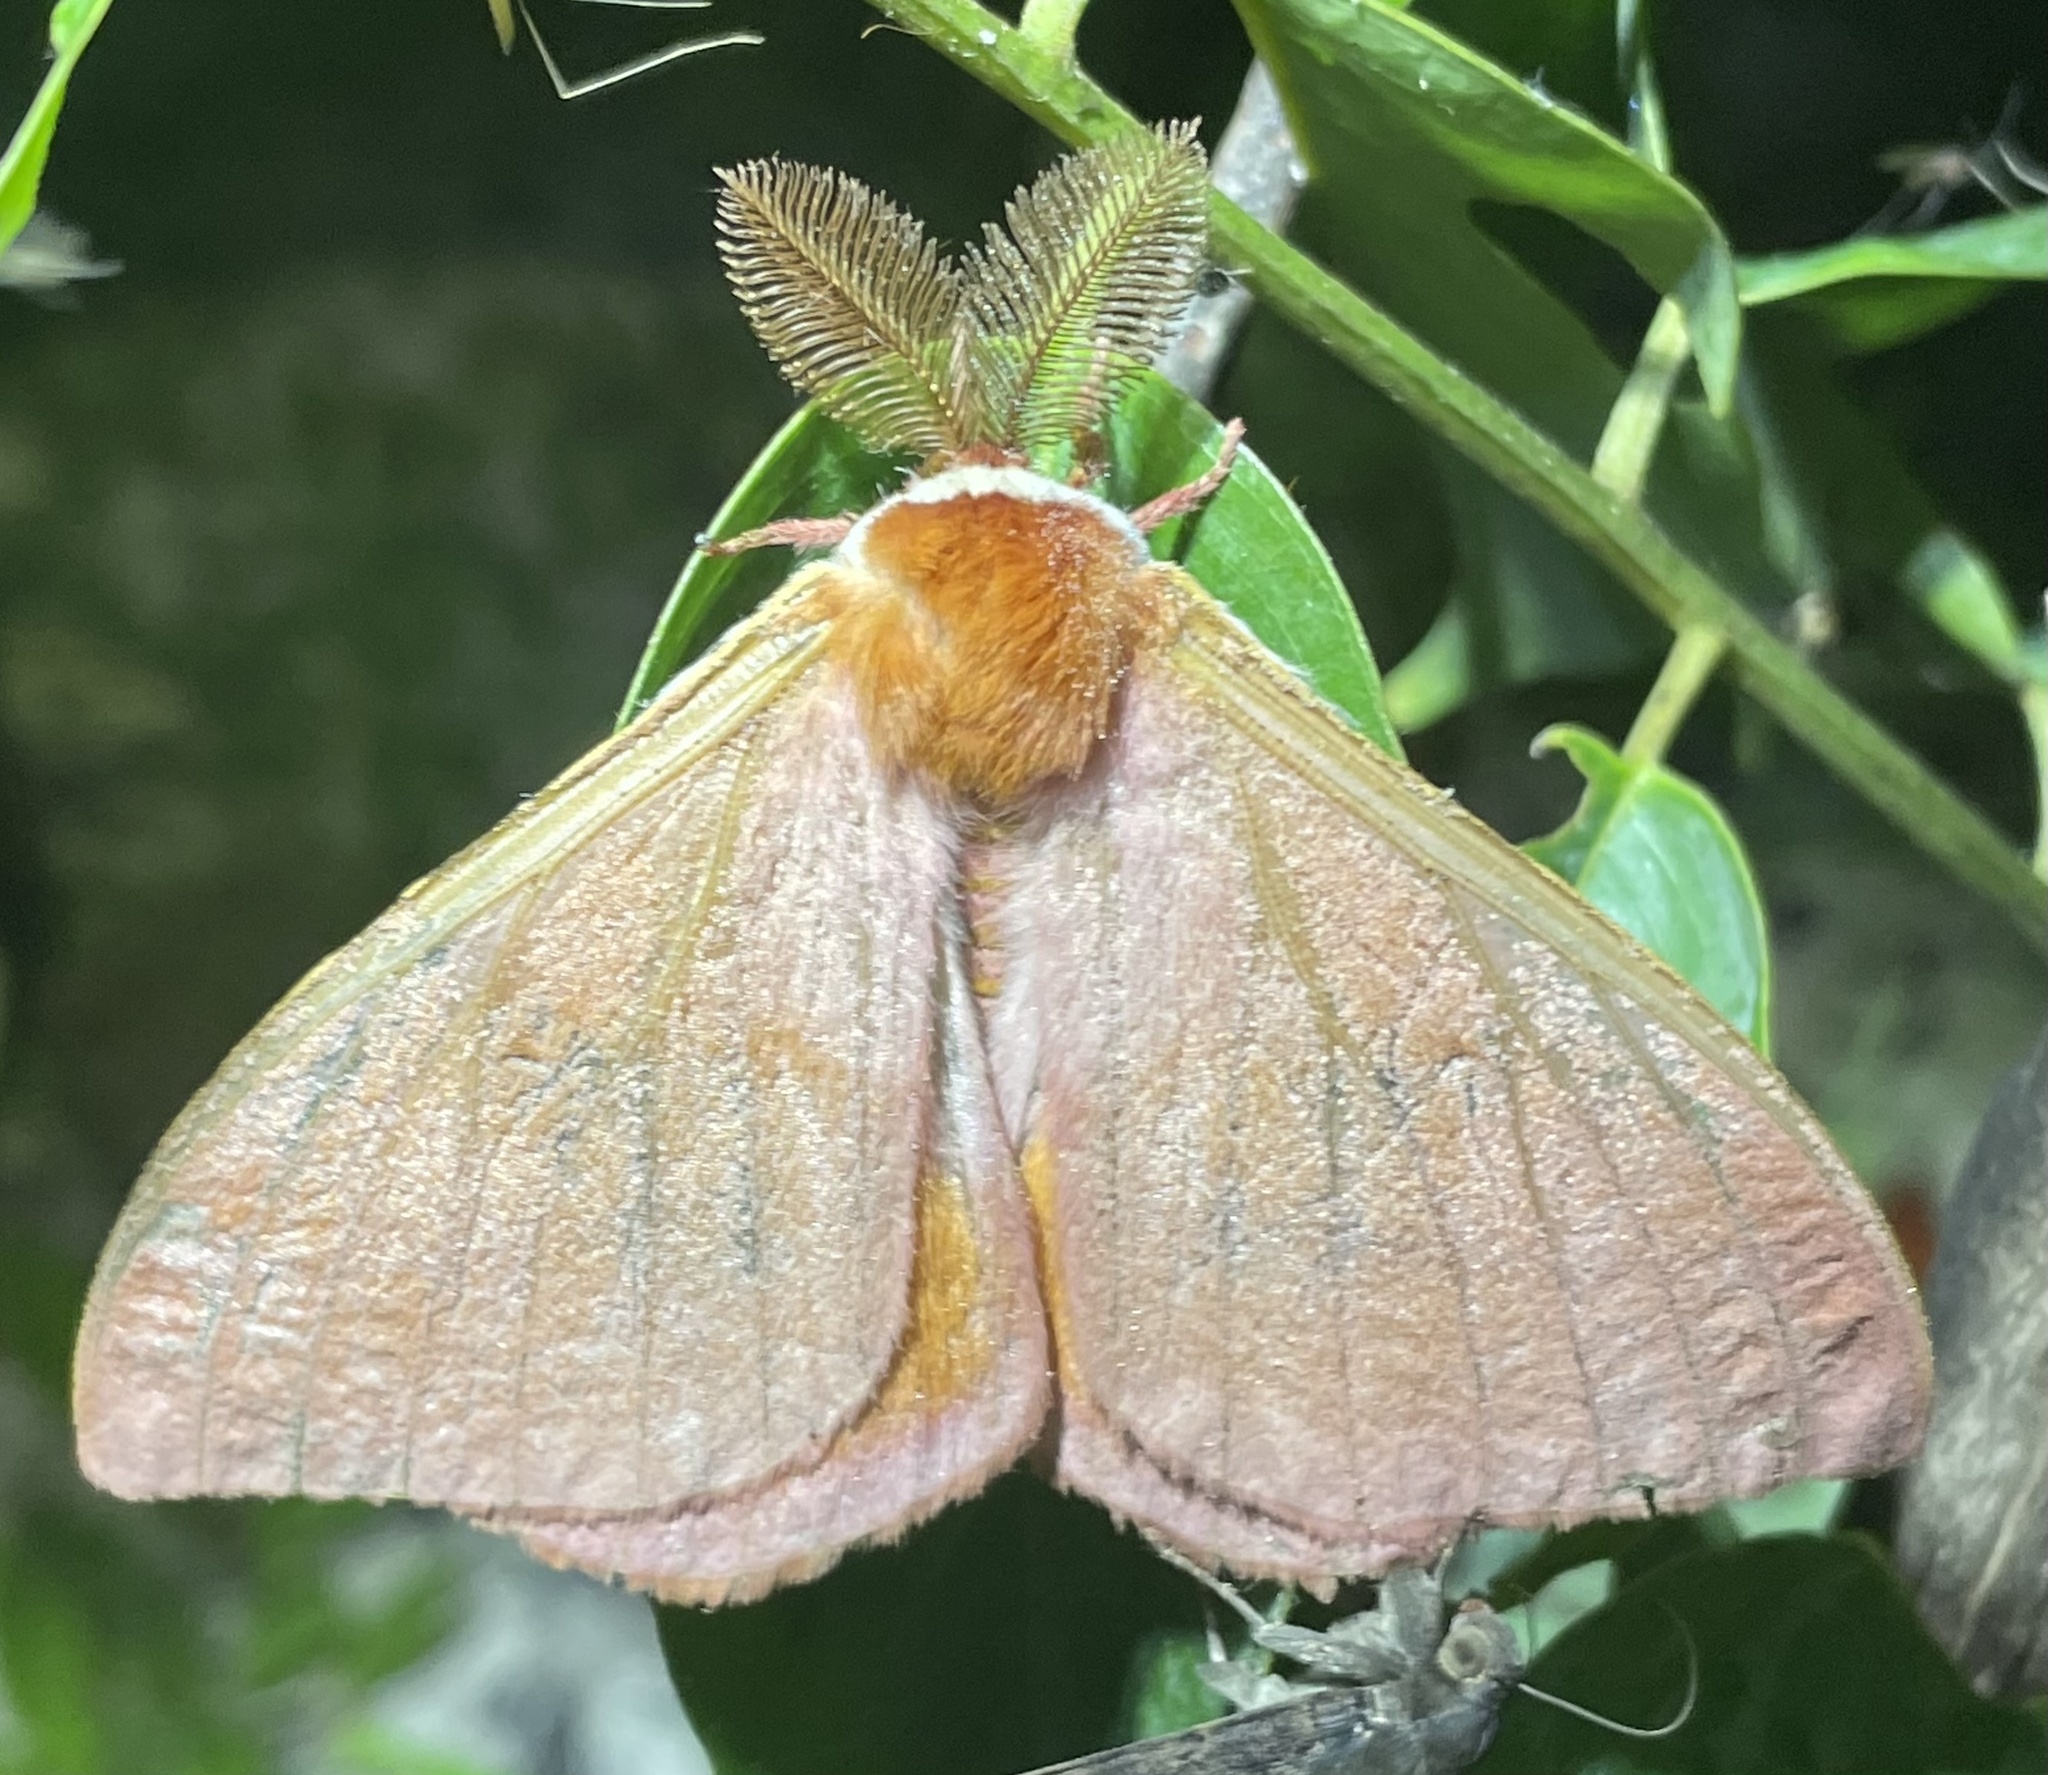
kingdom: Animalia
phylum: Arthropoda
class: Insecta
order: Lepidoptera
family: Saturniidae
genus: Rohaniella
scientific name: Rohaniella pygmaea
